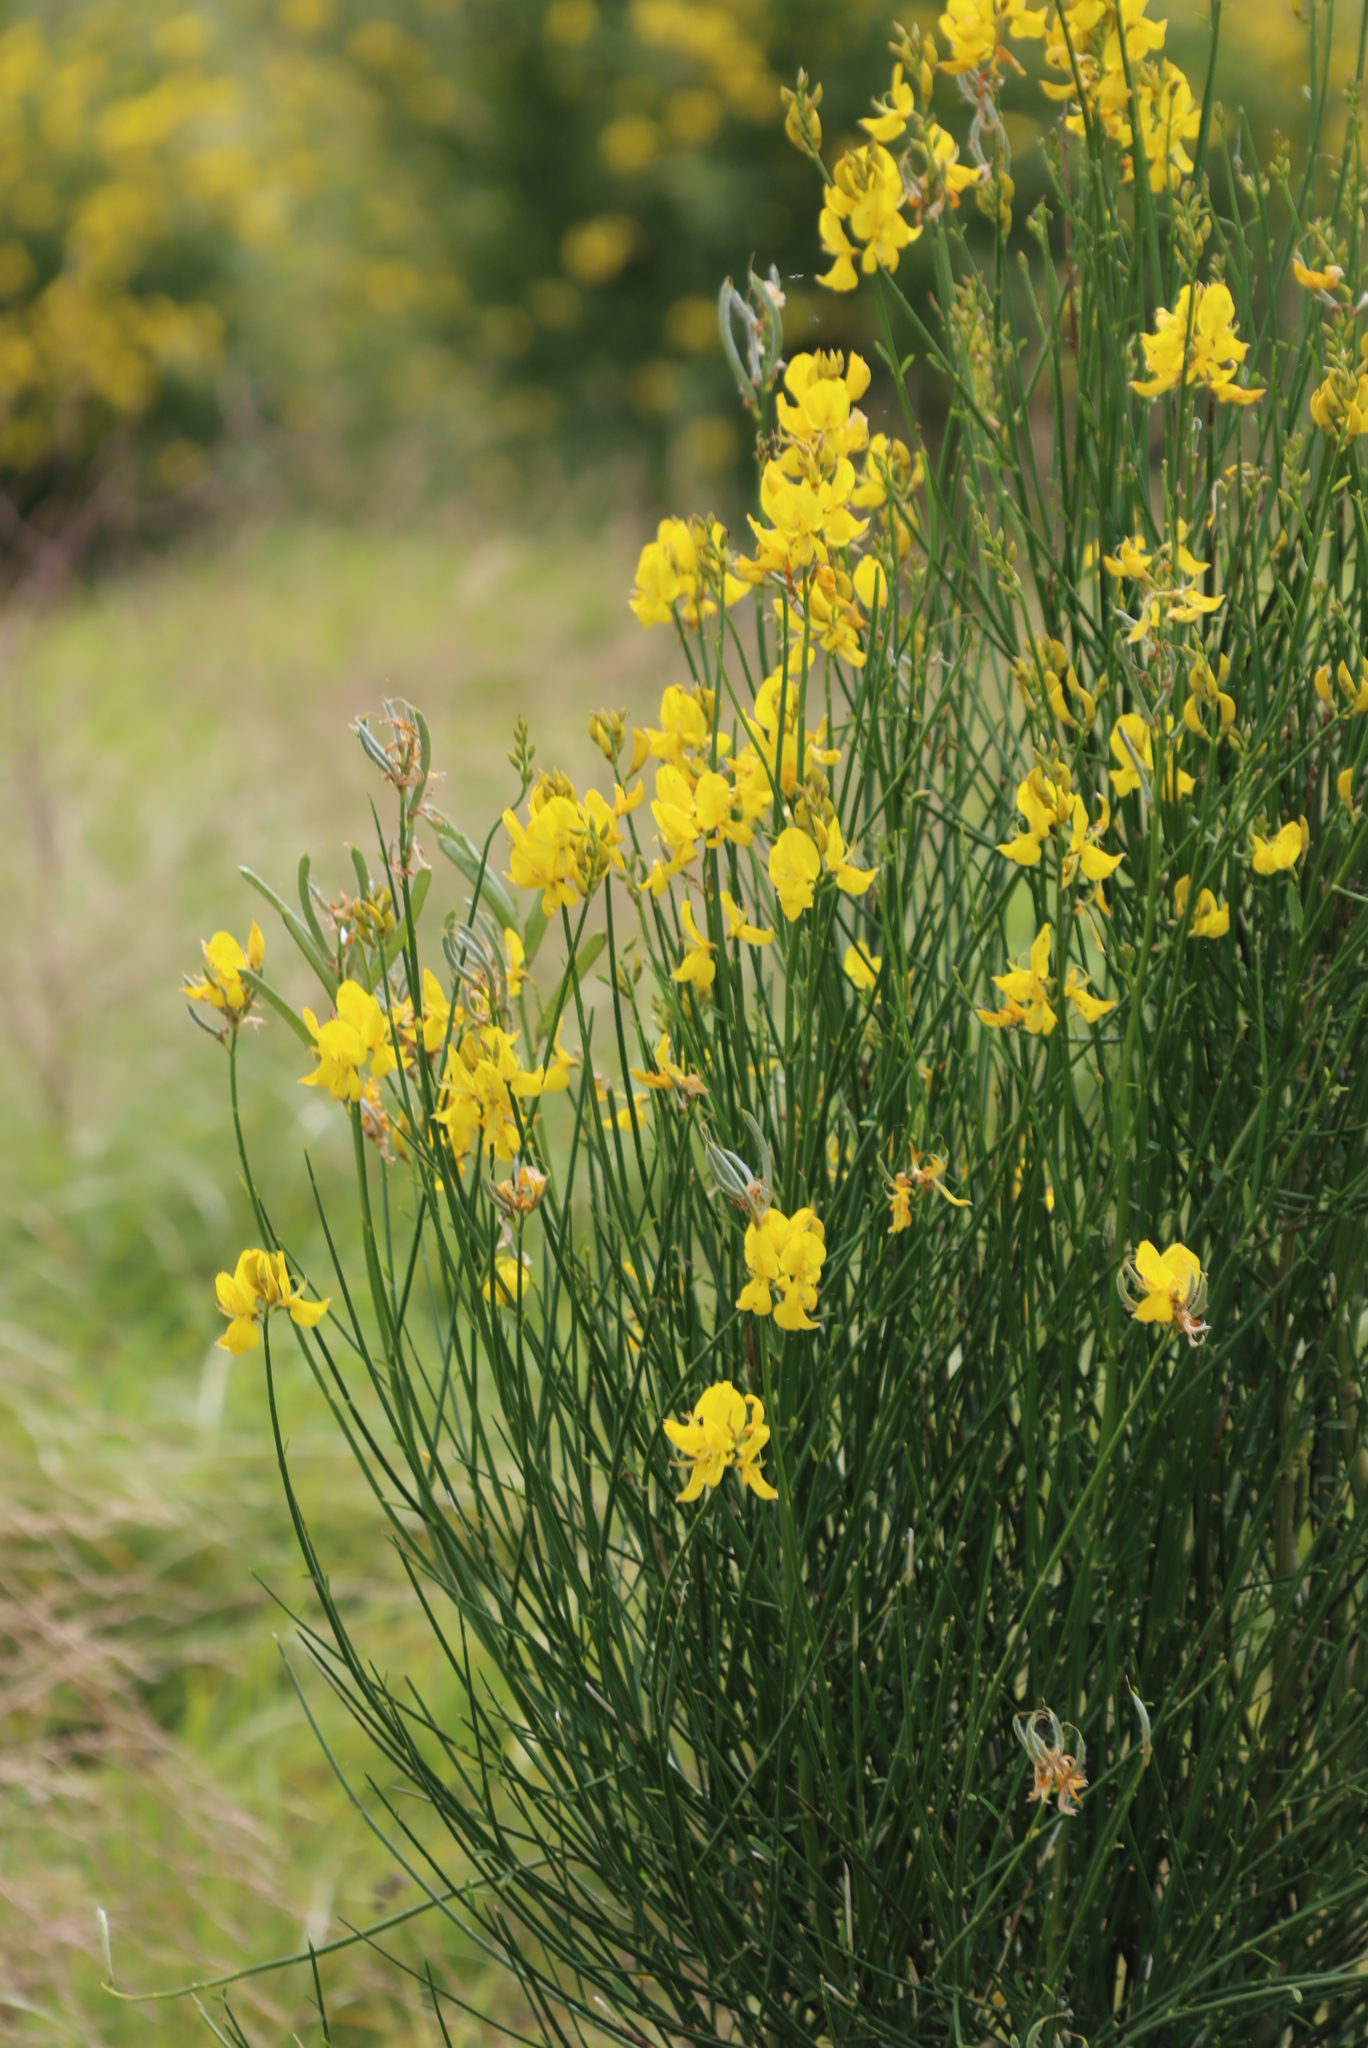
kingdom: Plantae
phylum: Tracheophyta
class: Magnoliopsida
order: Fabales
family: Fabaceae
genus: Spartium
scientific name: Spartium junceum
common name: Spanish broom
